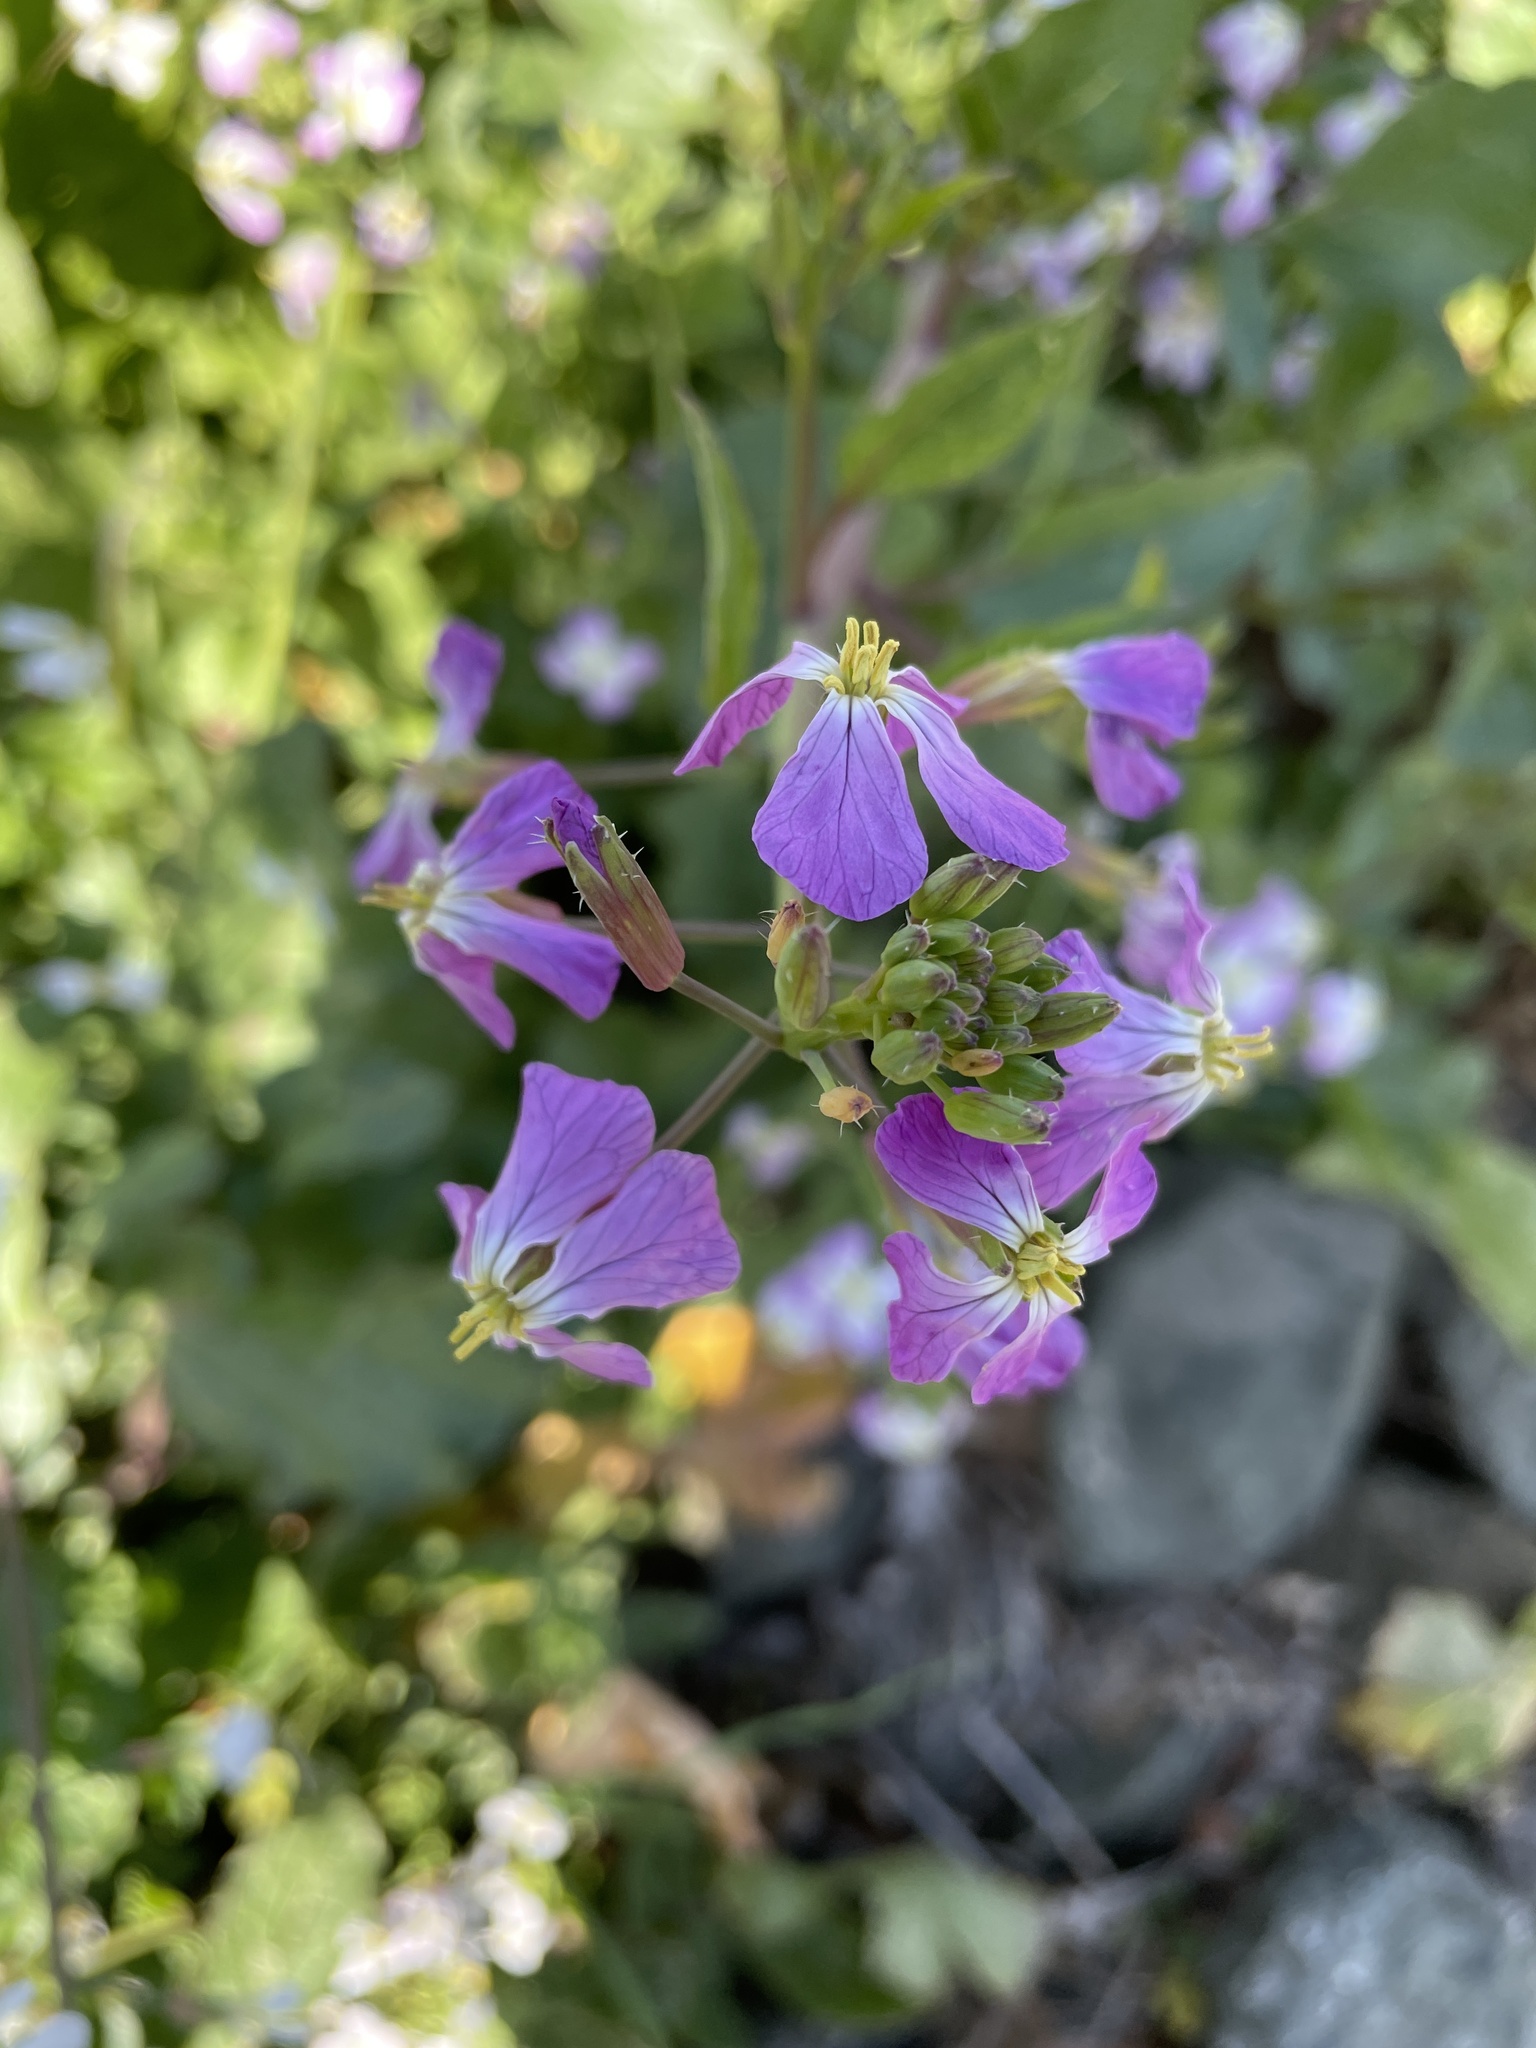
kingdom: Plantae
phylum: Tracheophyta
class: Magnoliopsida
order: Brassicales
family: Brassicaceae
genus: Raphanus
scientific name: Raphanus sativus
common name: Cultivated radish
